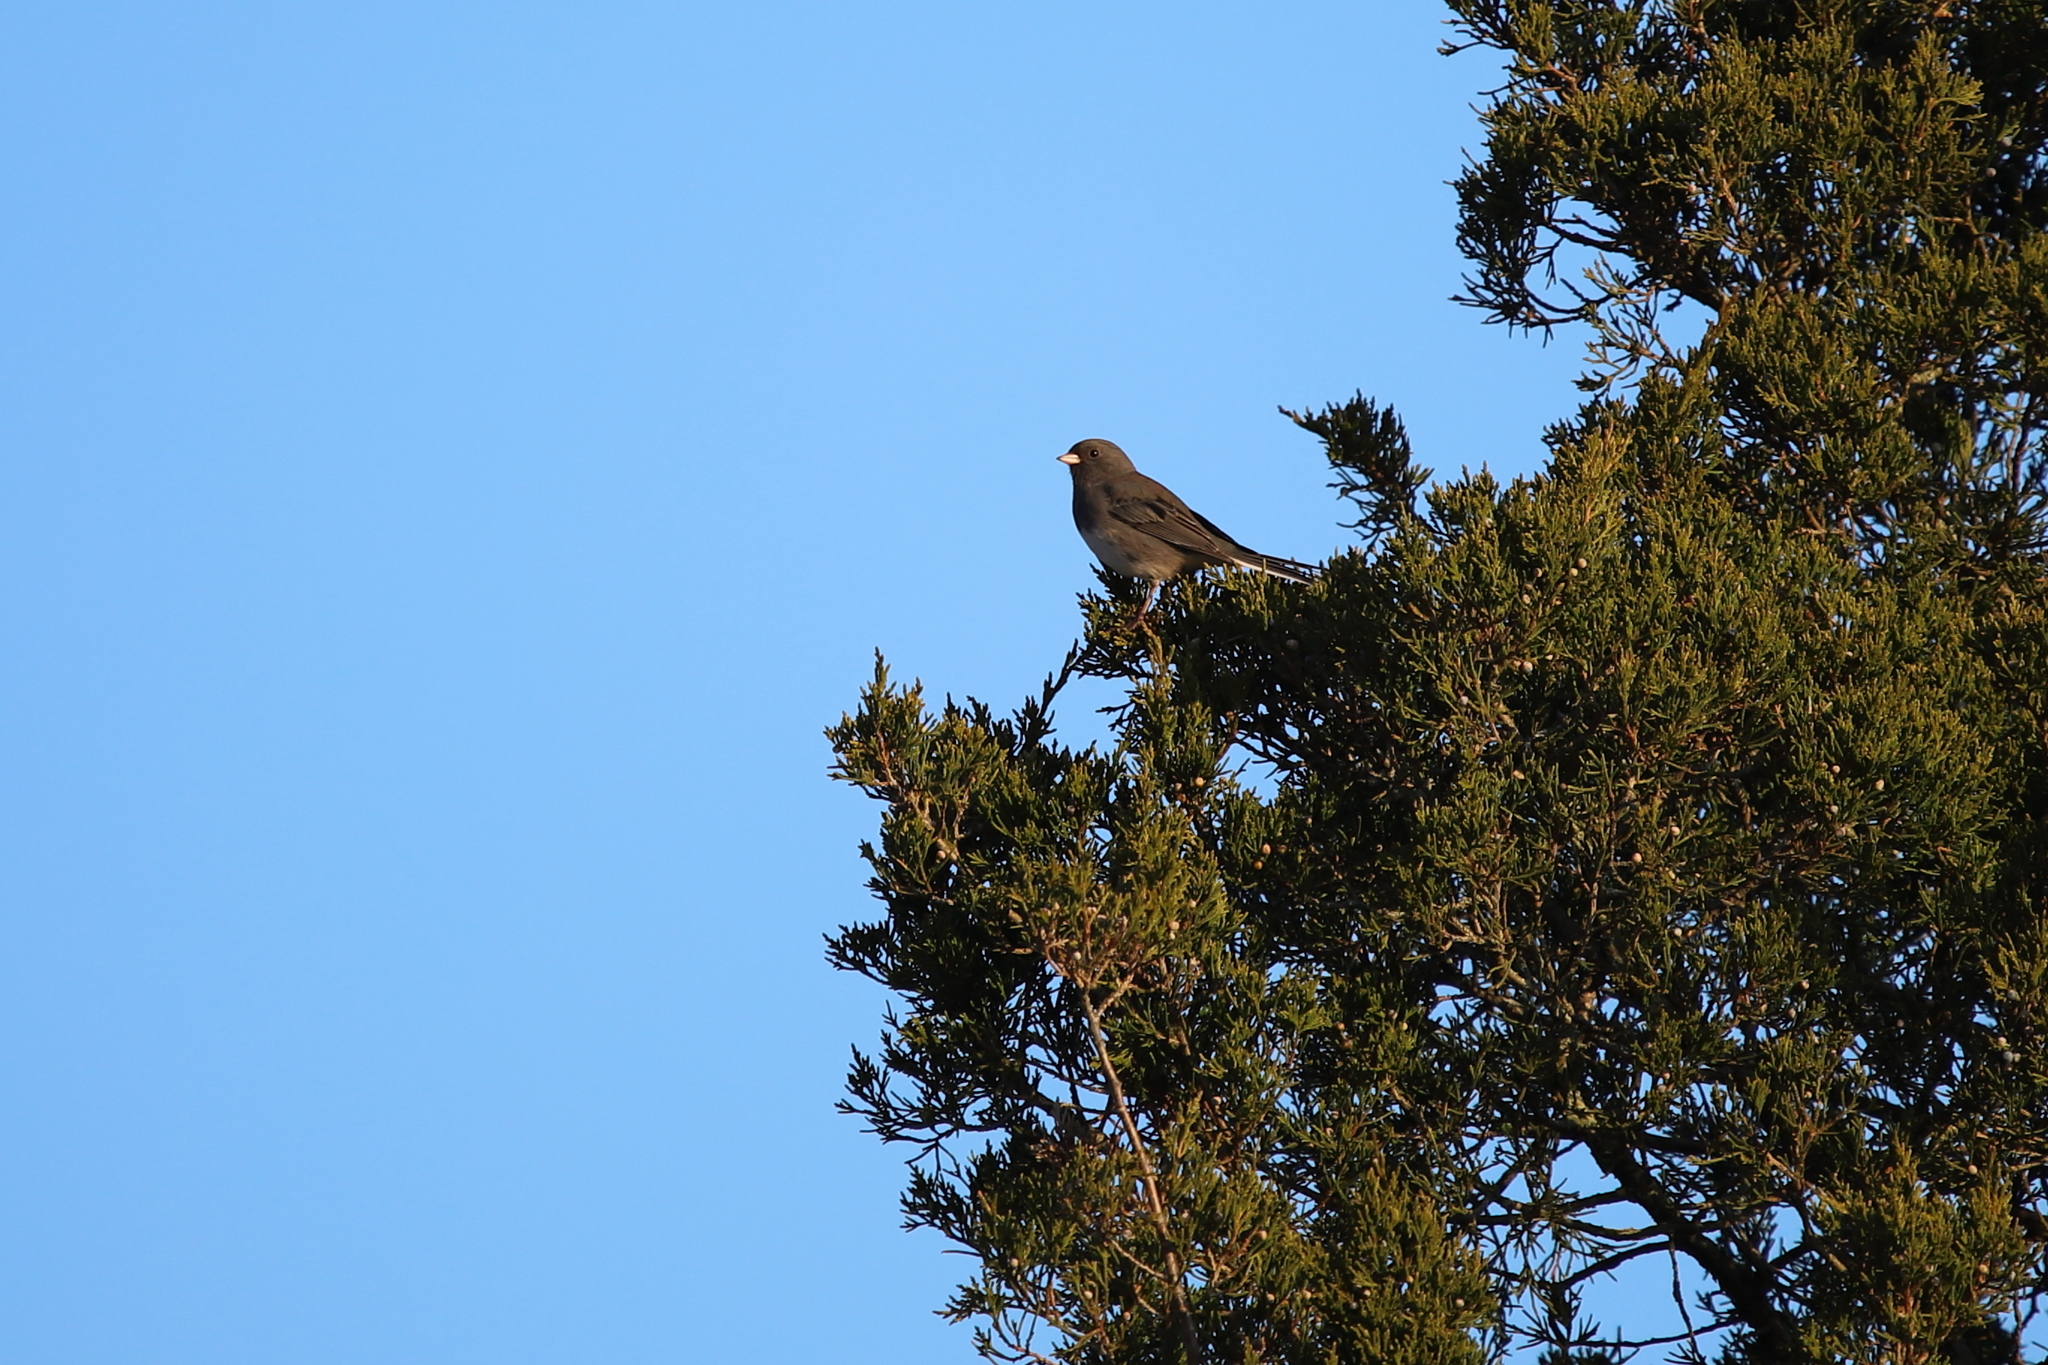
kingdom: Animalia
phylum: Chordata
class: Aves
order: Passeriformes
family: Passerellidae
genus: Junco
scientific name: Junco hyemalis
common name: Dark-eyed junco
